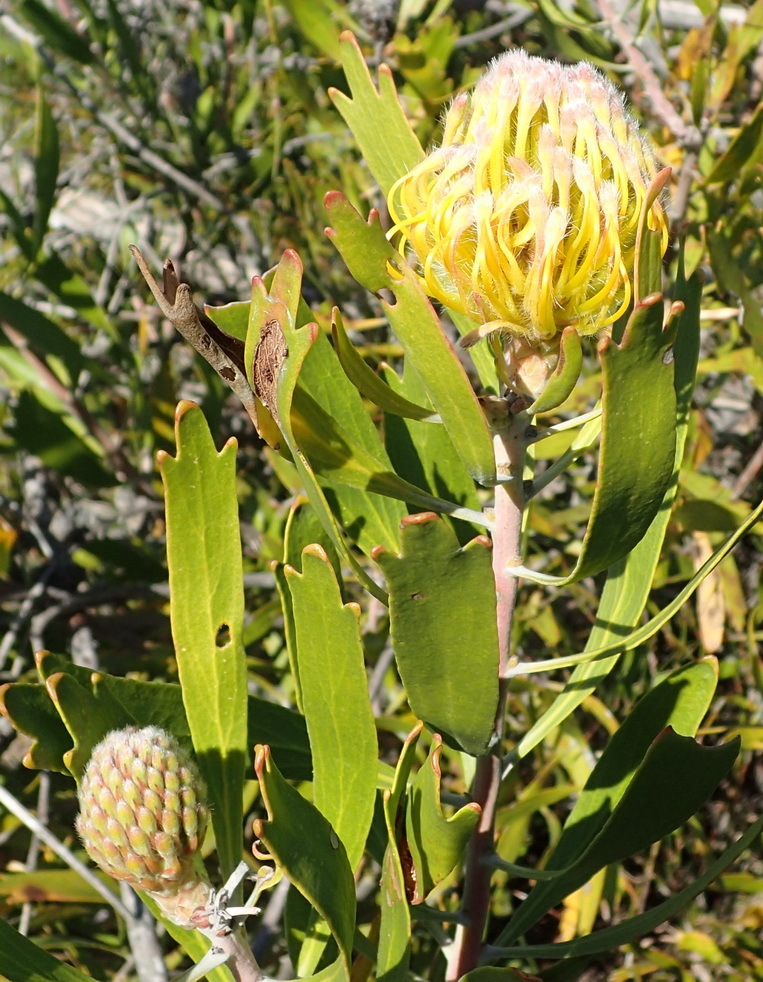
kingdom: Plantae
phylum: Tracheophyta
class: Magnoliopsida
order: Proteales
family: Proteaceae
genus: Leucospermum
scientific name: Leucospermum cuneiforme
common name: Common pincushion
